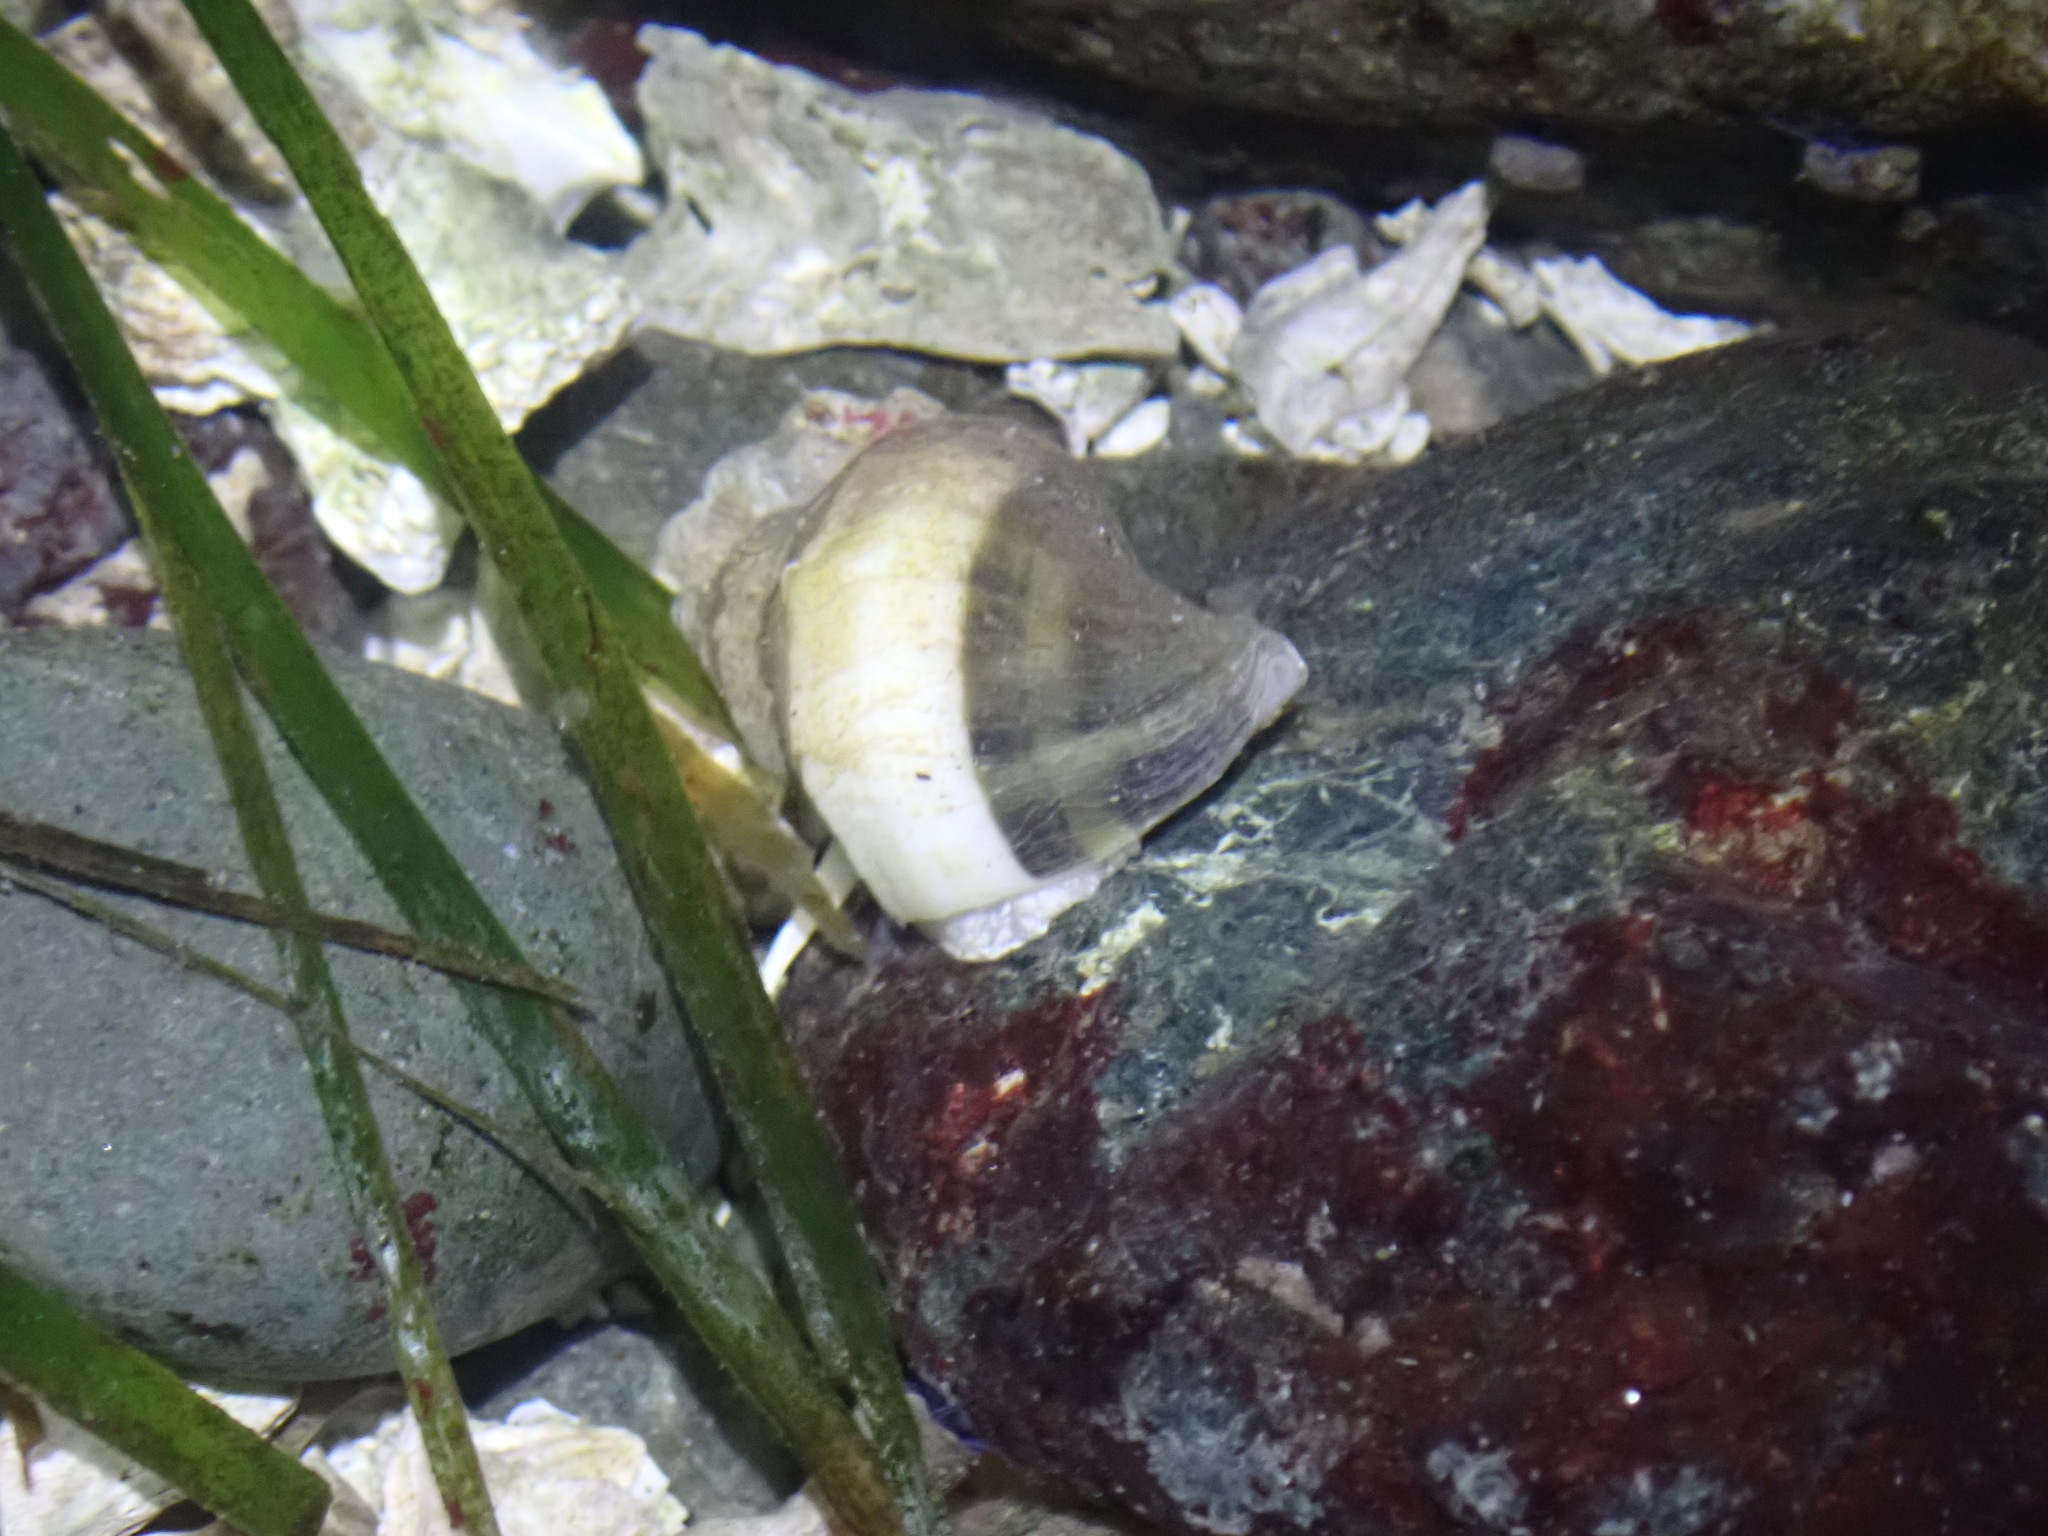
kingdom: Animalia
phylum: Mollusca
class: Gastropoda
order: Neogastropoda
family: Muricidae
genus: Nucella
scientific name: Nucella lamellosa
